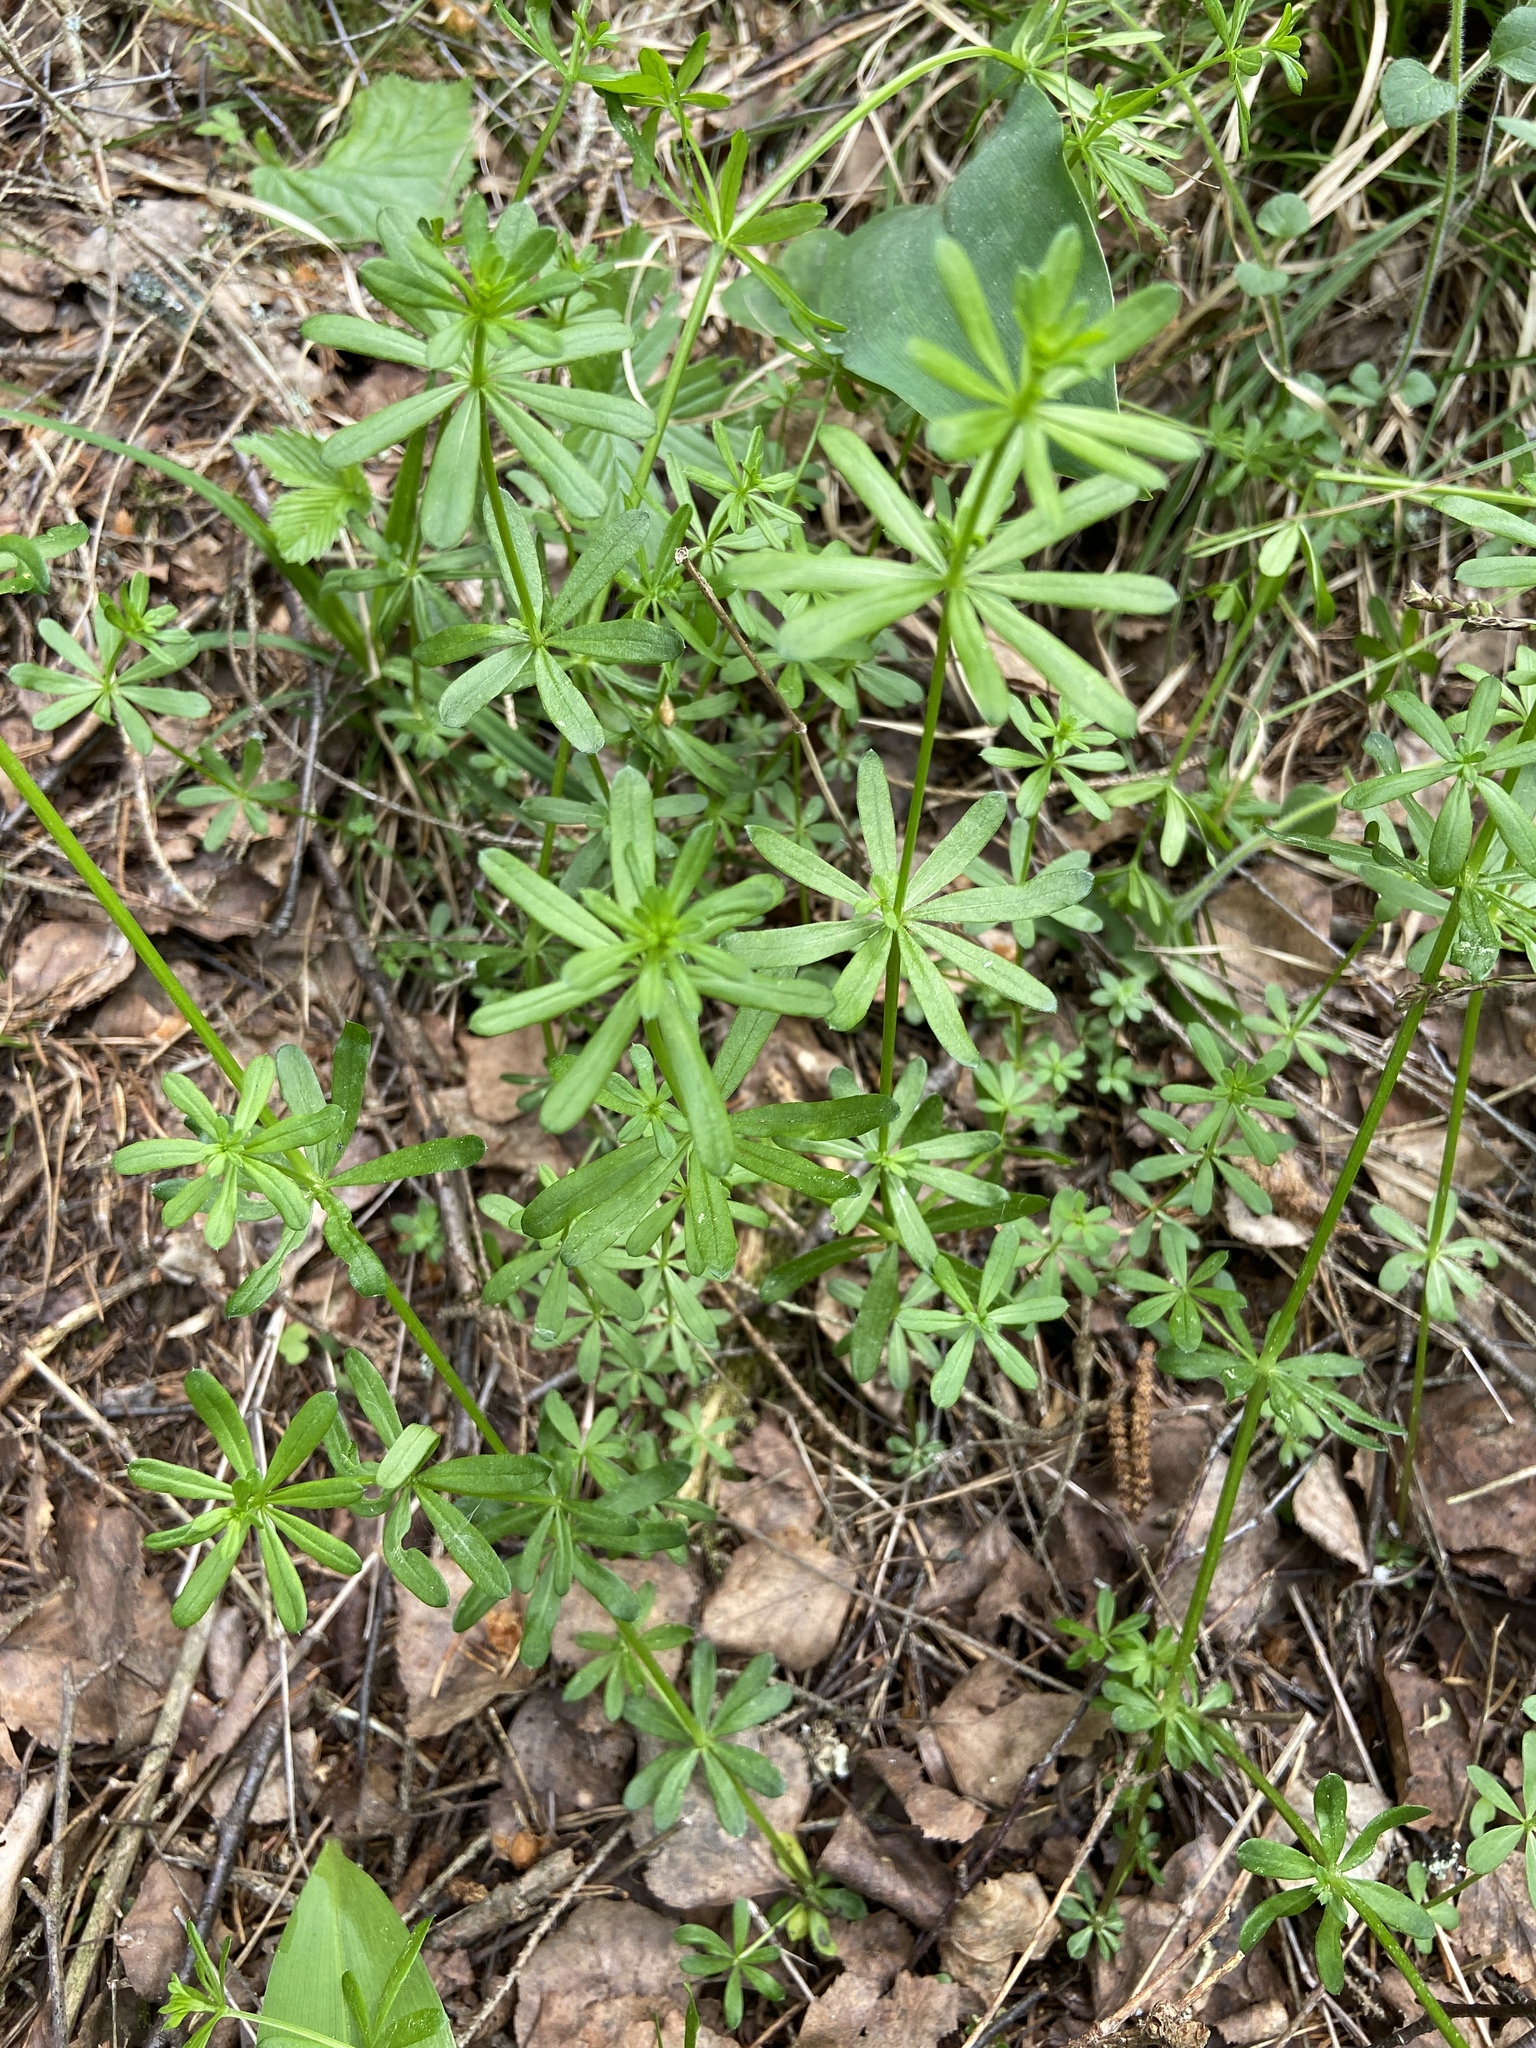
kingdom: Plantae
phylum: Tracheophyta
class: Magnoliopsida
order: Gentianales
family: Rubiaceae
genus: Galium
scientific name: Galium mollugo
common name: Hedge bedstraw
